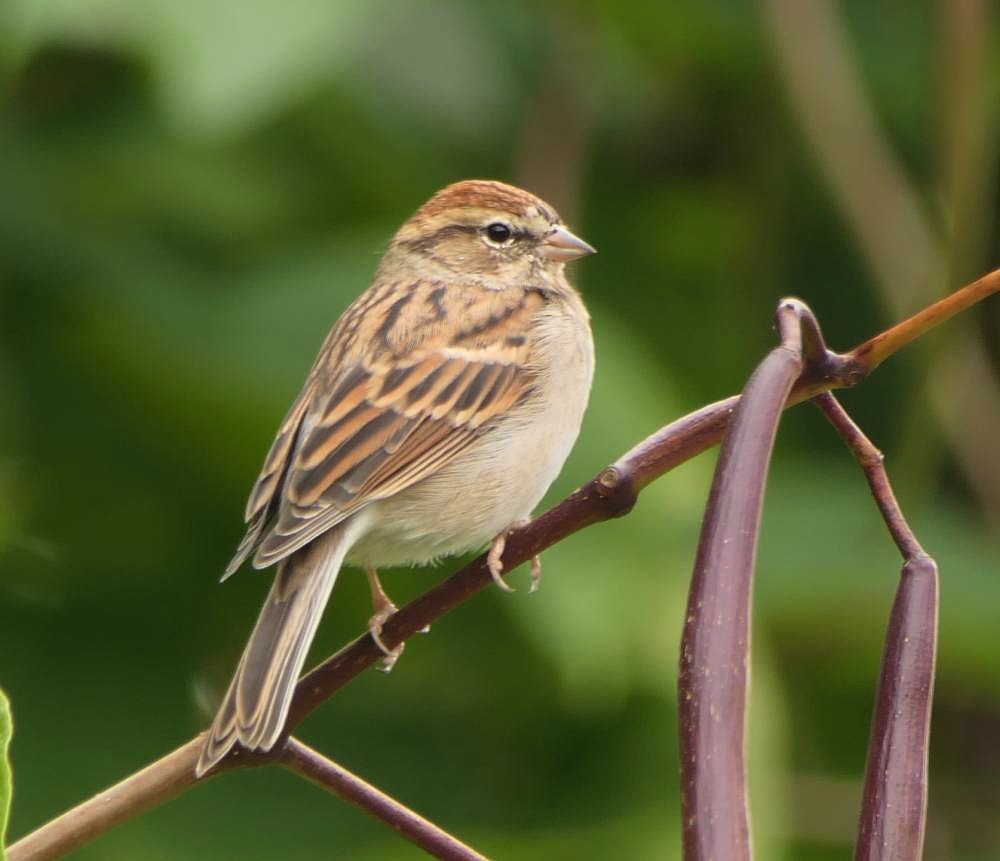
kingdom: Animalia
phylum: Chordata
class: Aves
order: Passeriformes
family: Passerellidae
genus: Spizella
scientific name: Spizella passerina
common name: Chipping sparrow
